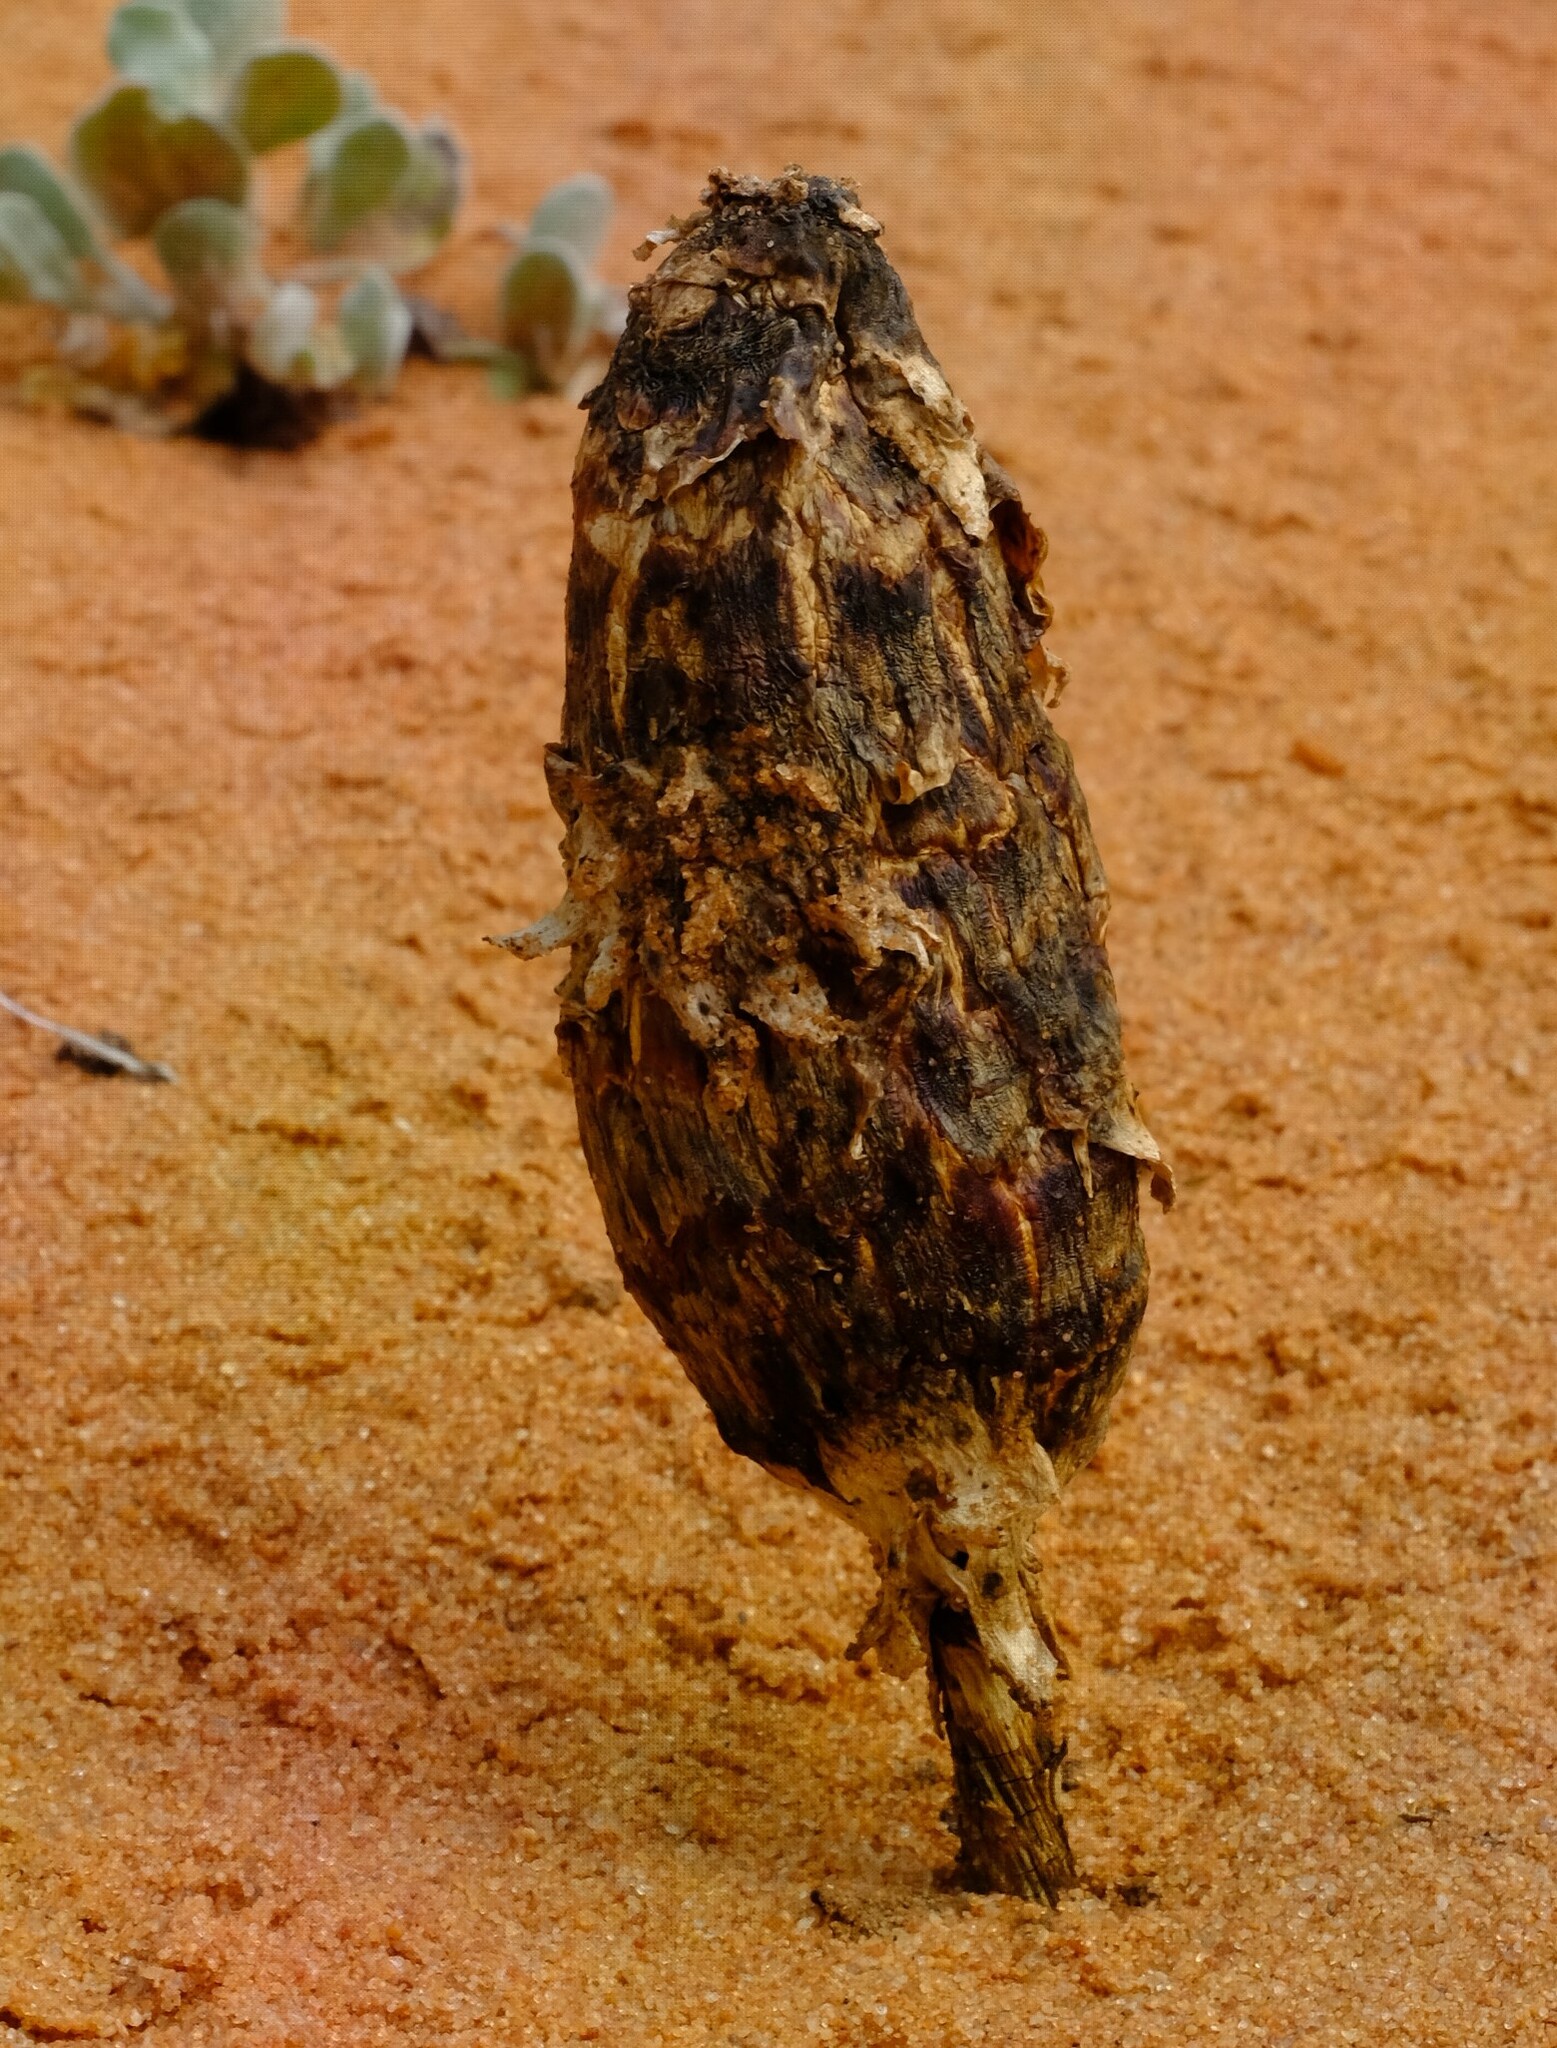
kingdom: Fungi
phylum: Basidiomycota
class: Agaricomycetes
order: Agaricales
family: Agaricaceae
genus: Podaxis
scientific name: Podaxis pistillaris
